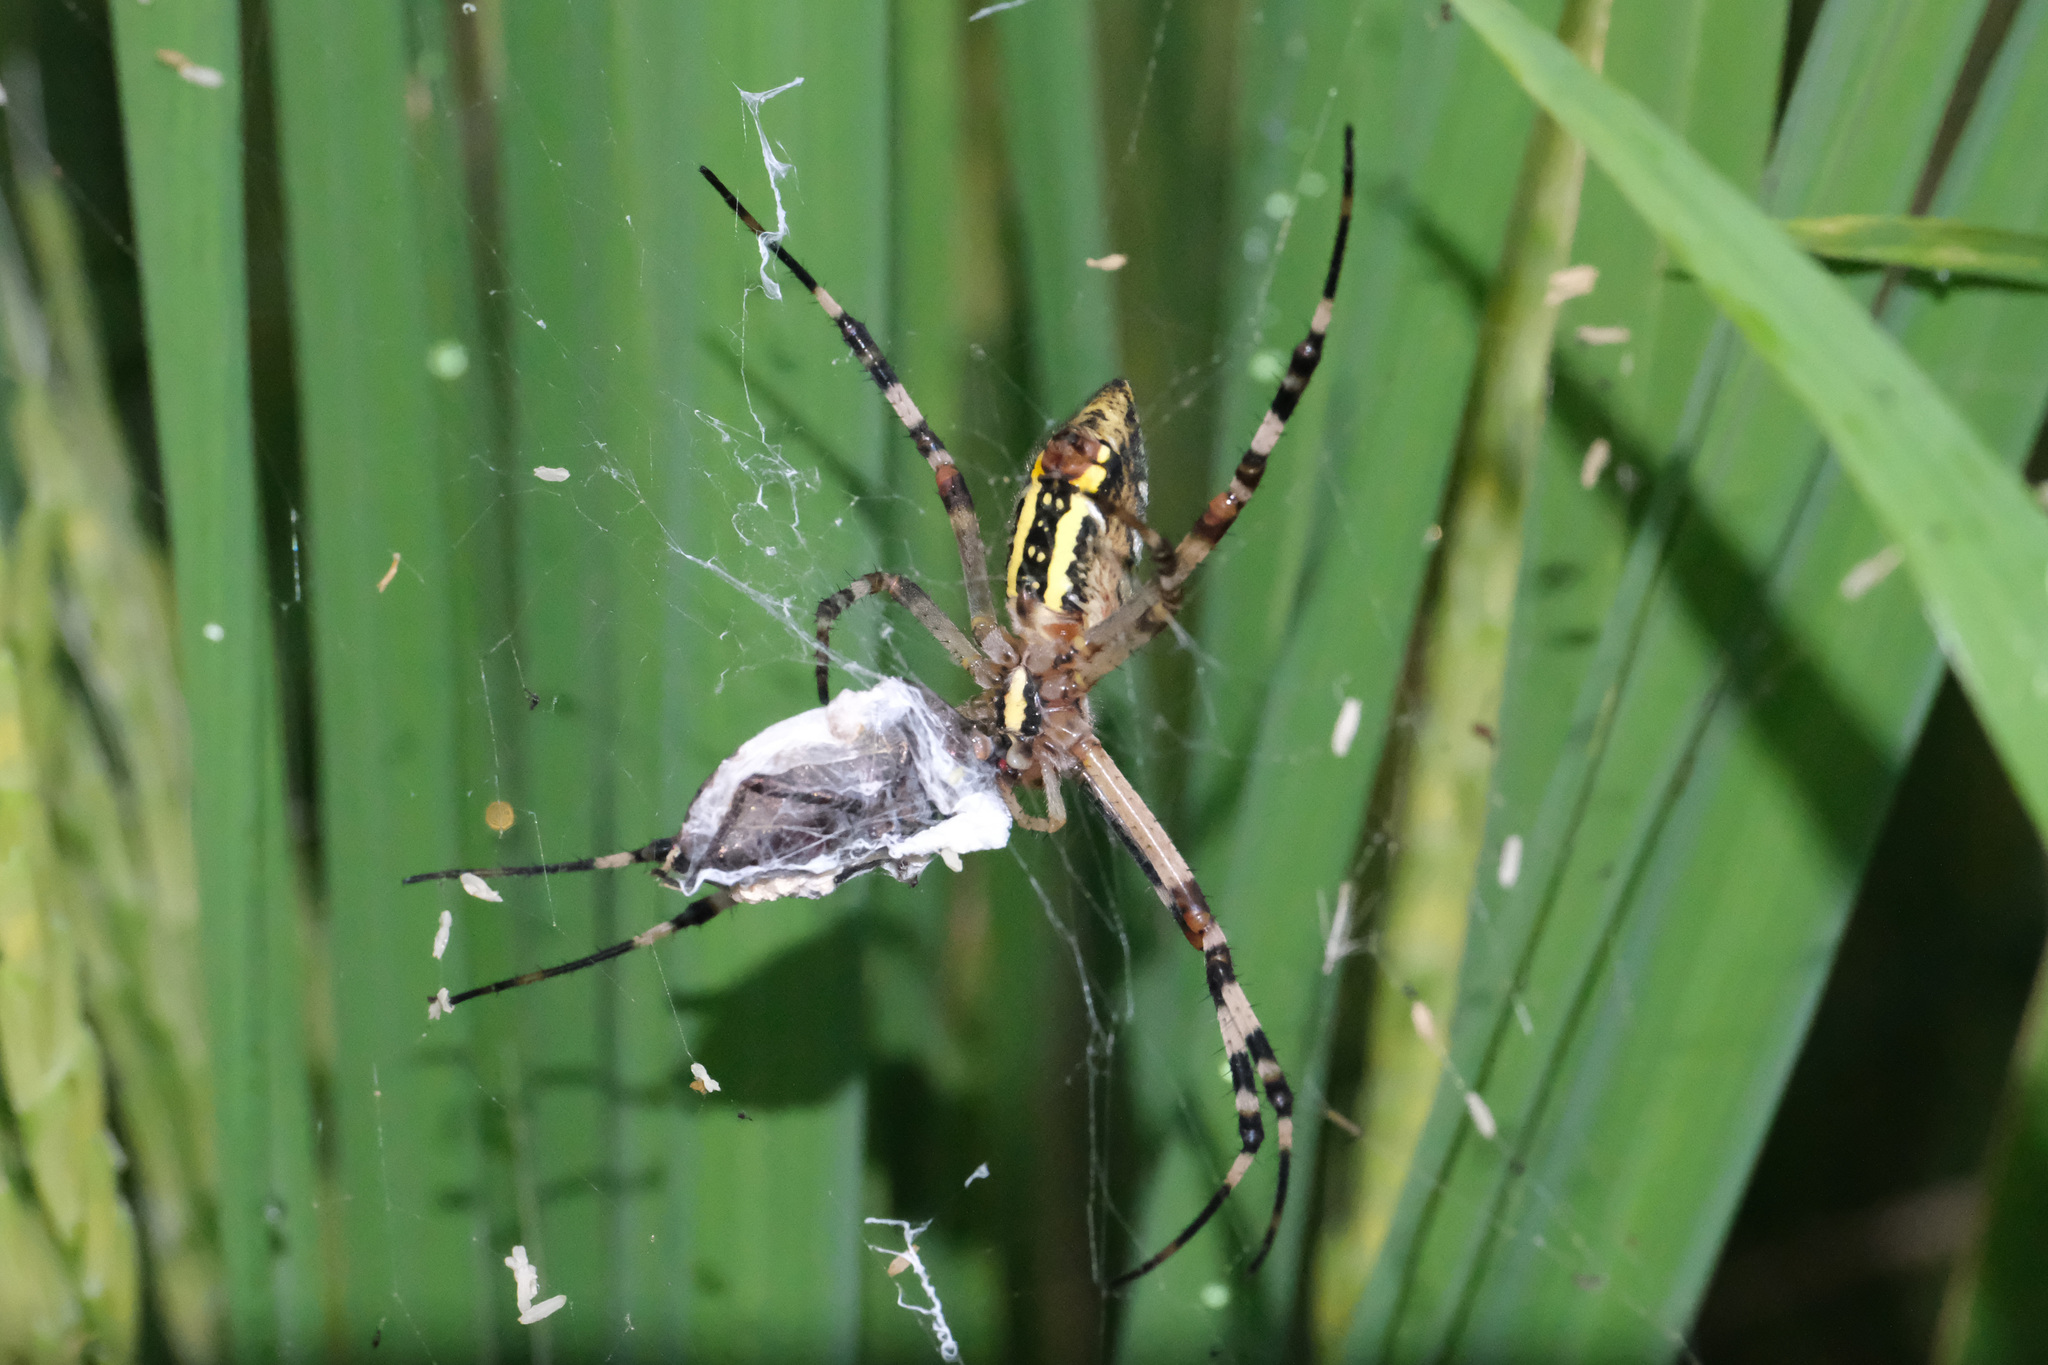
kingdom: Animalia
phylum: Arthropoda
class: Arachnida
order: Araneae
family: Araneidae
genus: Argiope
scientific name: Argiope bruennichi
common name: Wasp spider
